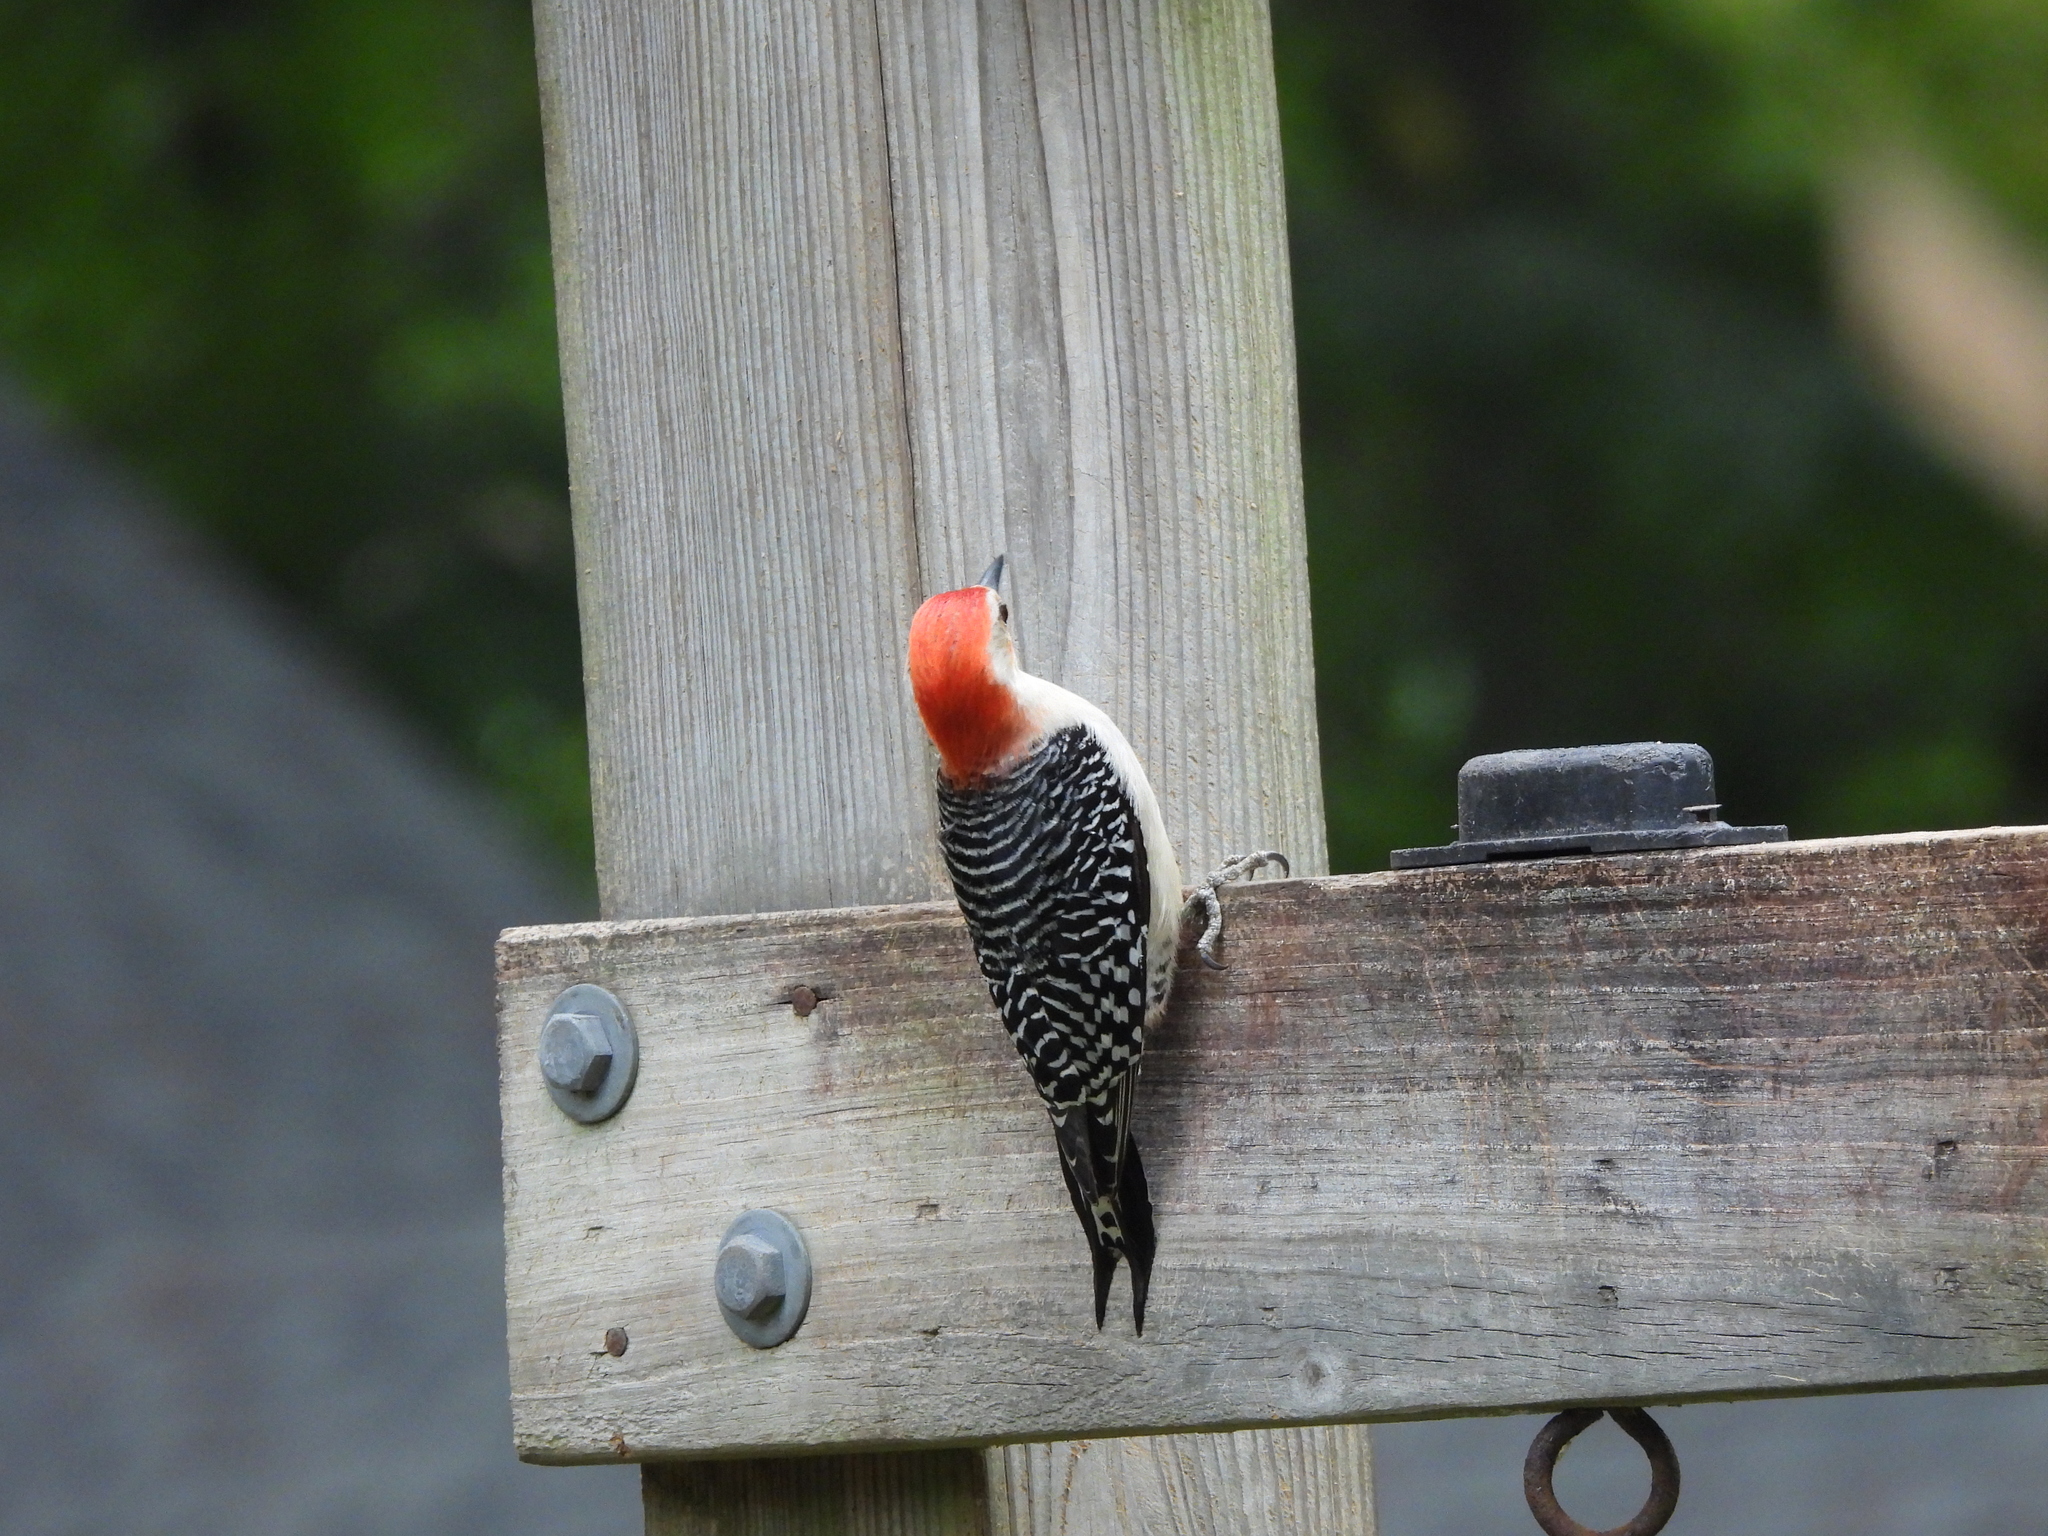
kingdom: Animalia
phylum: Chordata
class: Aves
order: Piciformes
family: Picidae
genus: Melanerpes
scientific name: Melanerpes carolinus
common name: Red-bellied woodpecker
